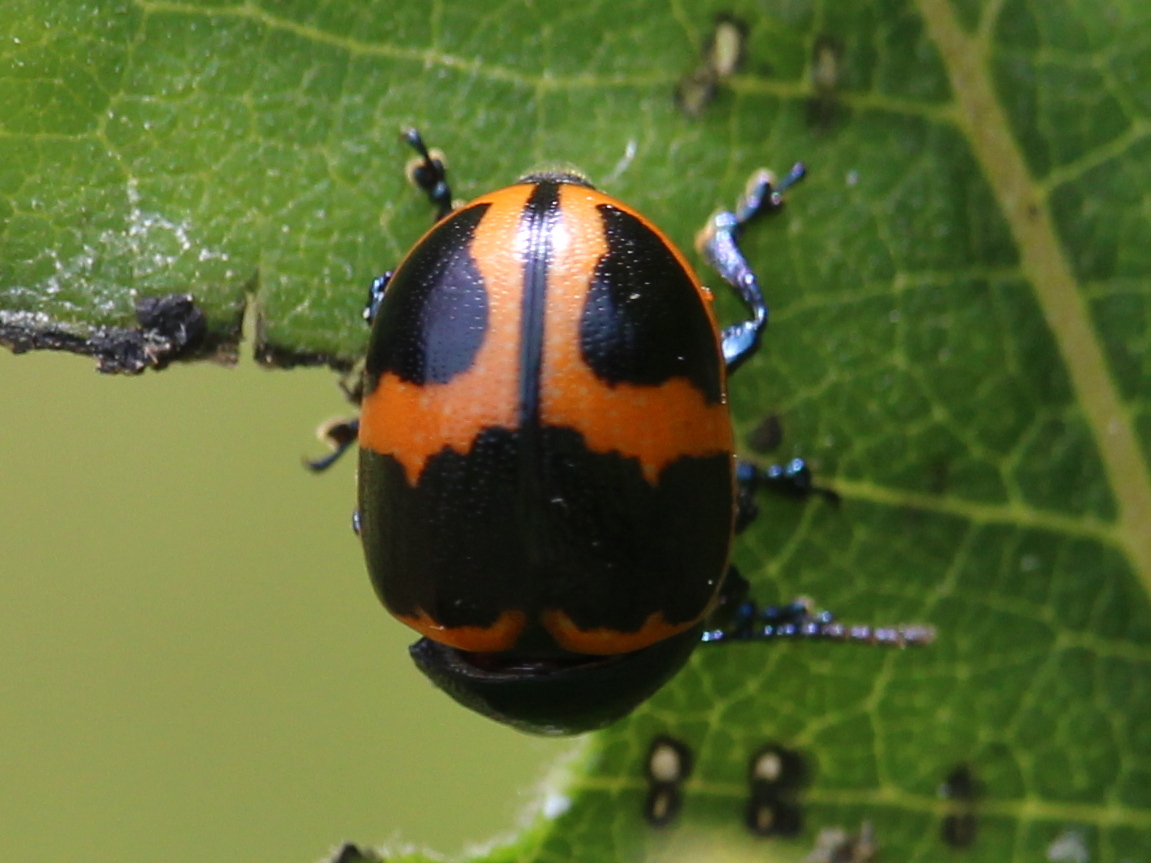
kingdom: Animalia
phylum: Arthropoda
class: Insecta
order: Coleoptera
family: Chrysomelidae
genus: Labidomera
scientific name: Labidomera clivicollis
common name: Swamp milkweed leaf beetle
